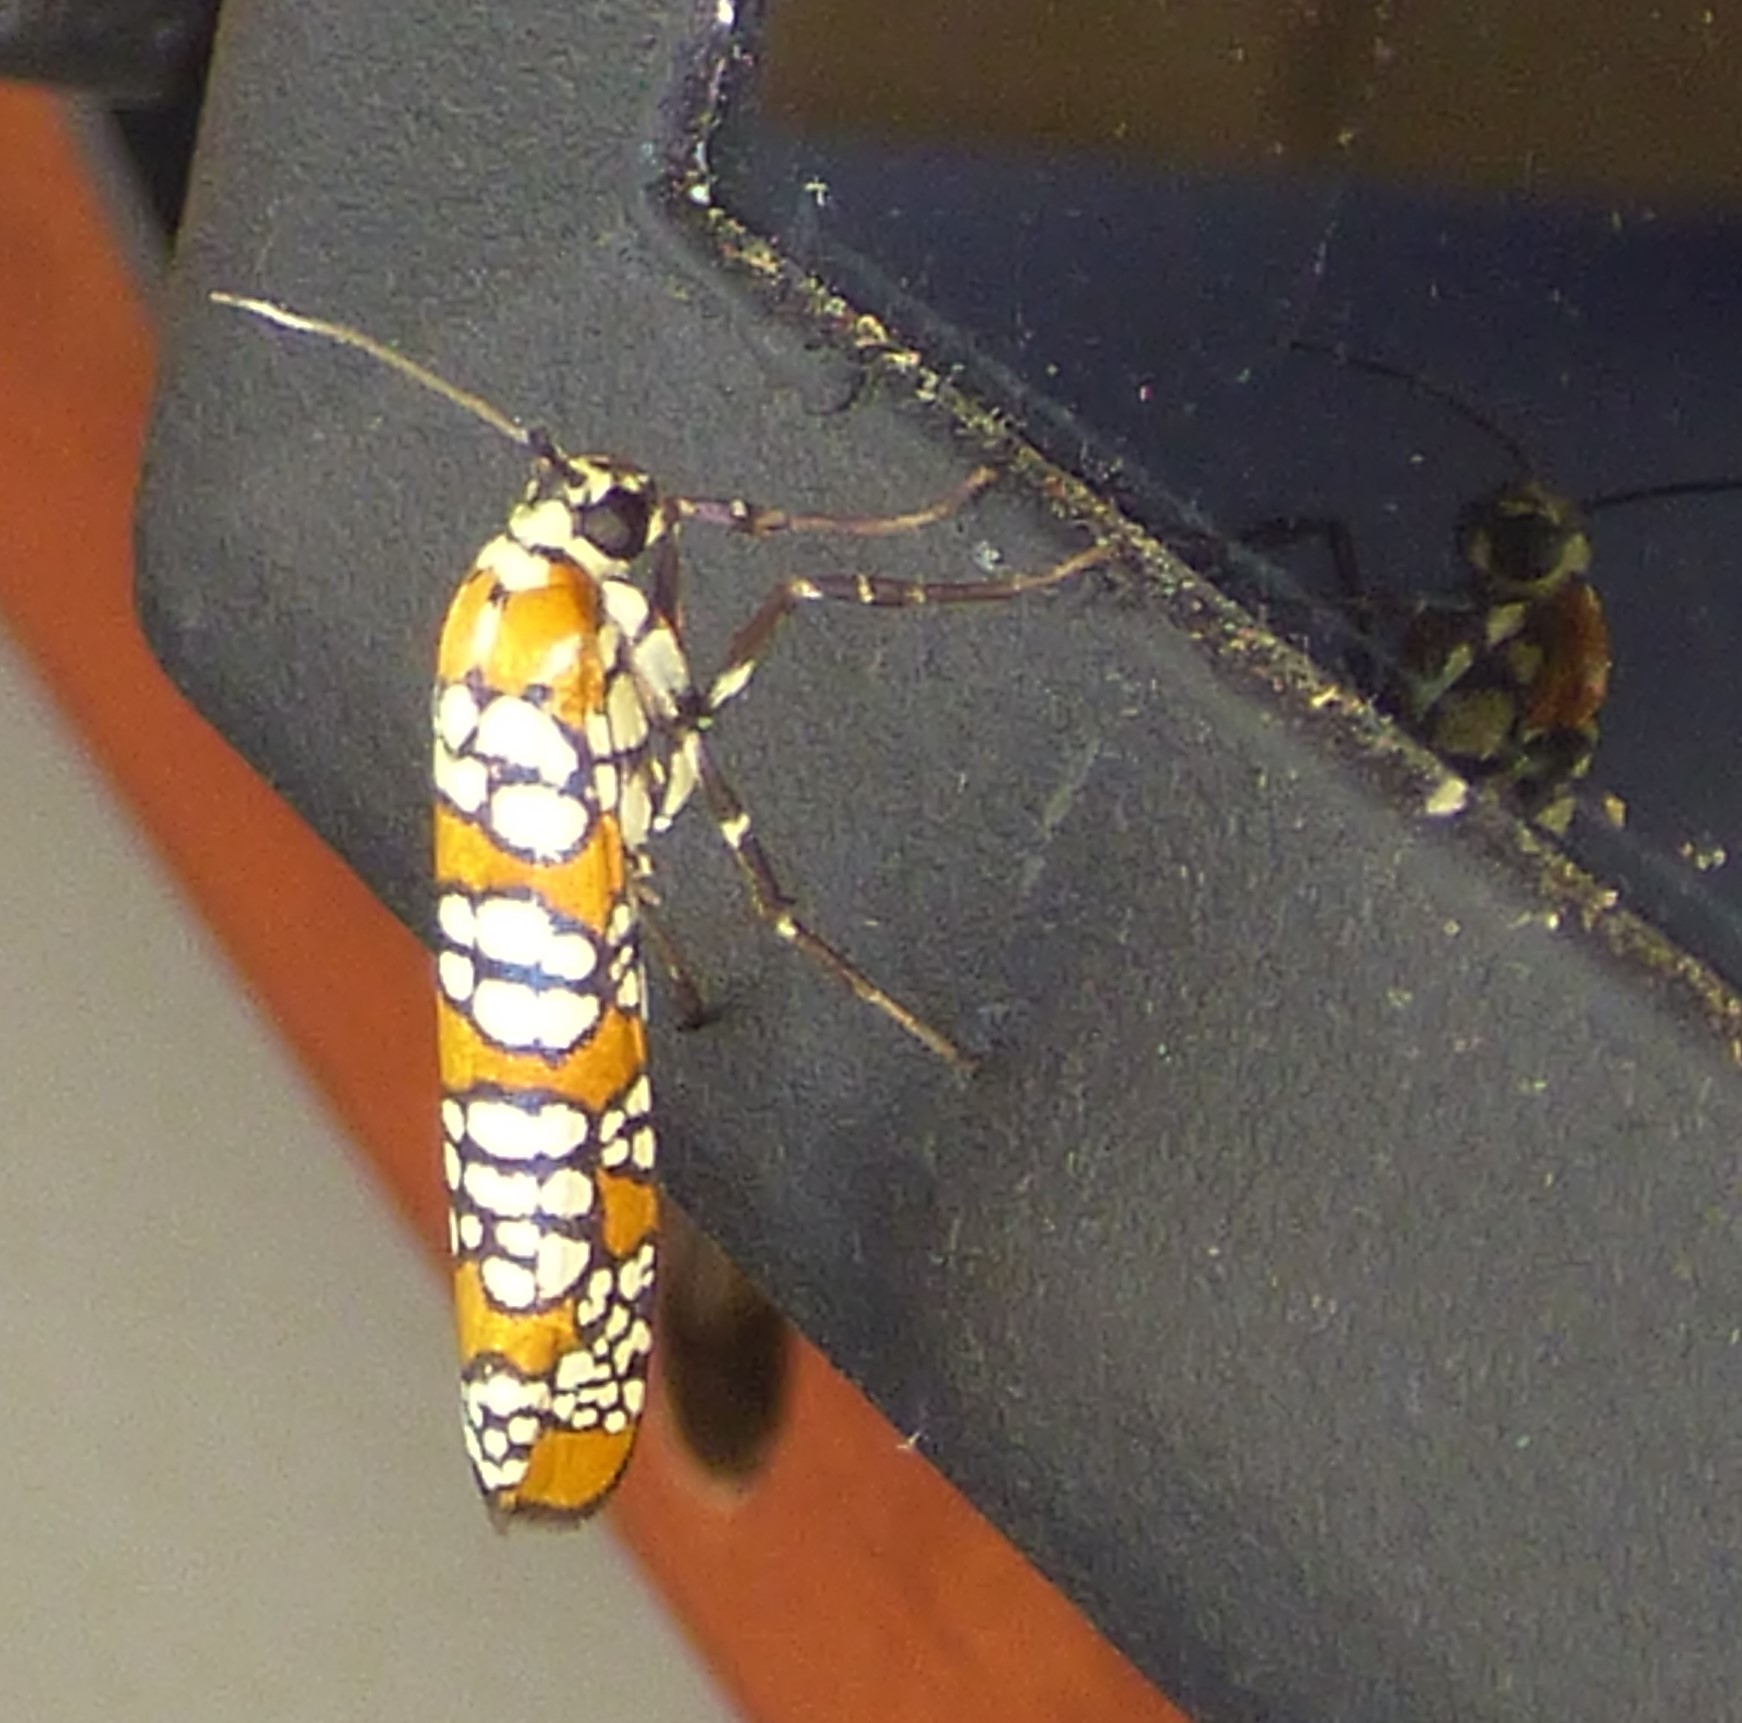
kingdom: Animalia
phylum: Arthropoda
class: Insecta
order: Lepidoptera
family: Attevidae
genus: Atteva
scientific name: Atteva punctella
